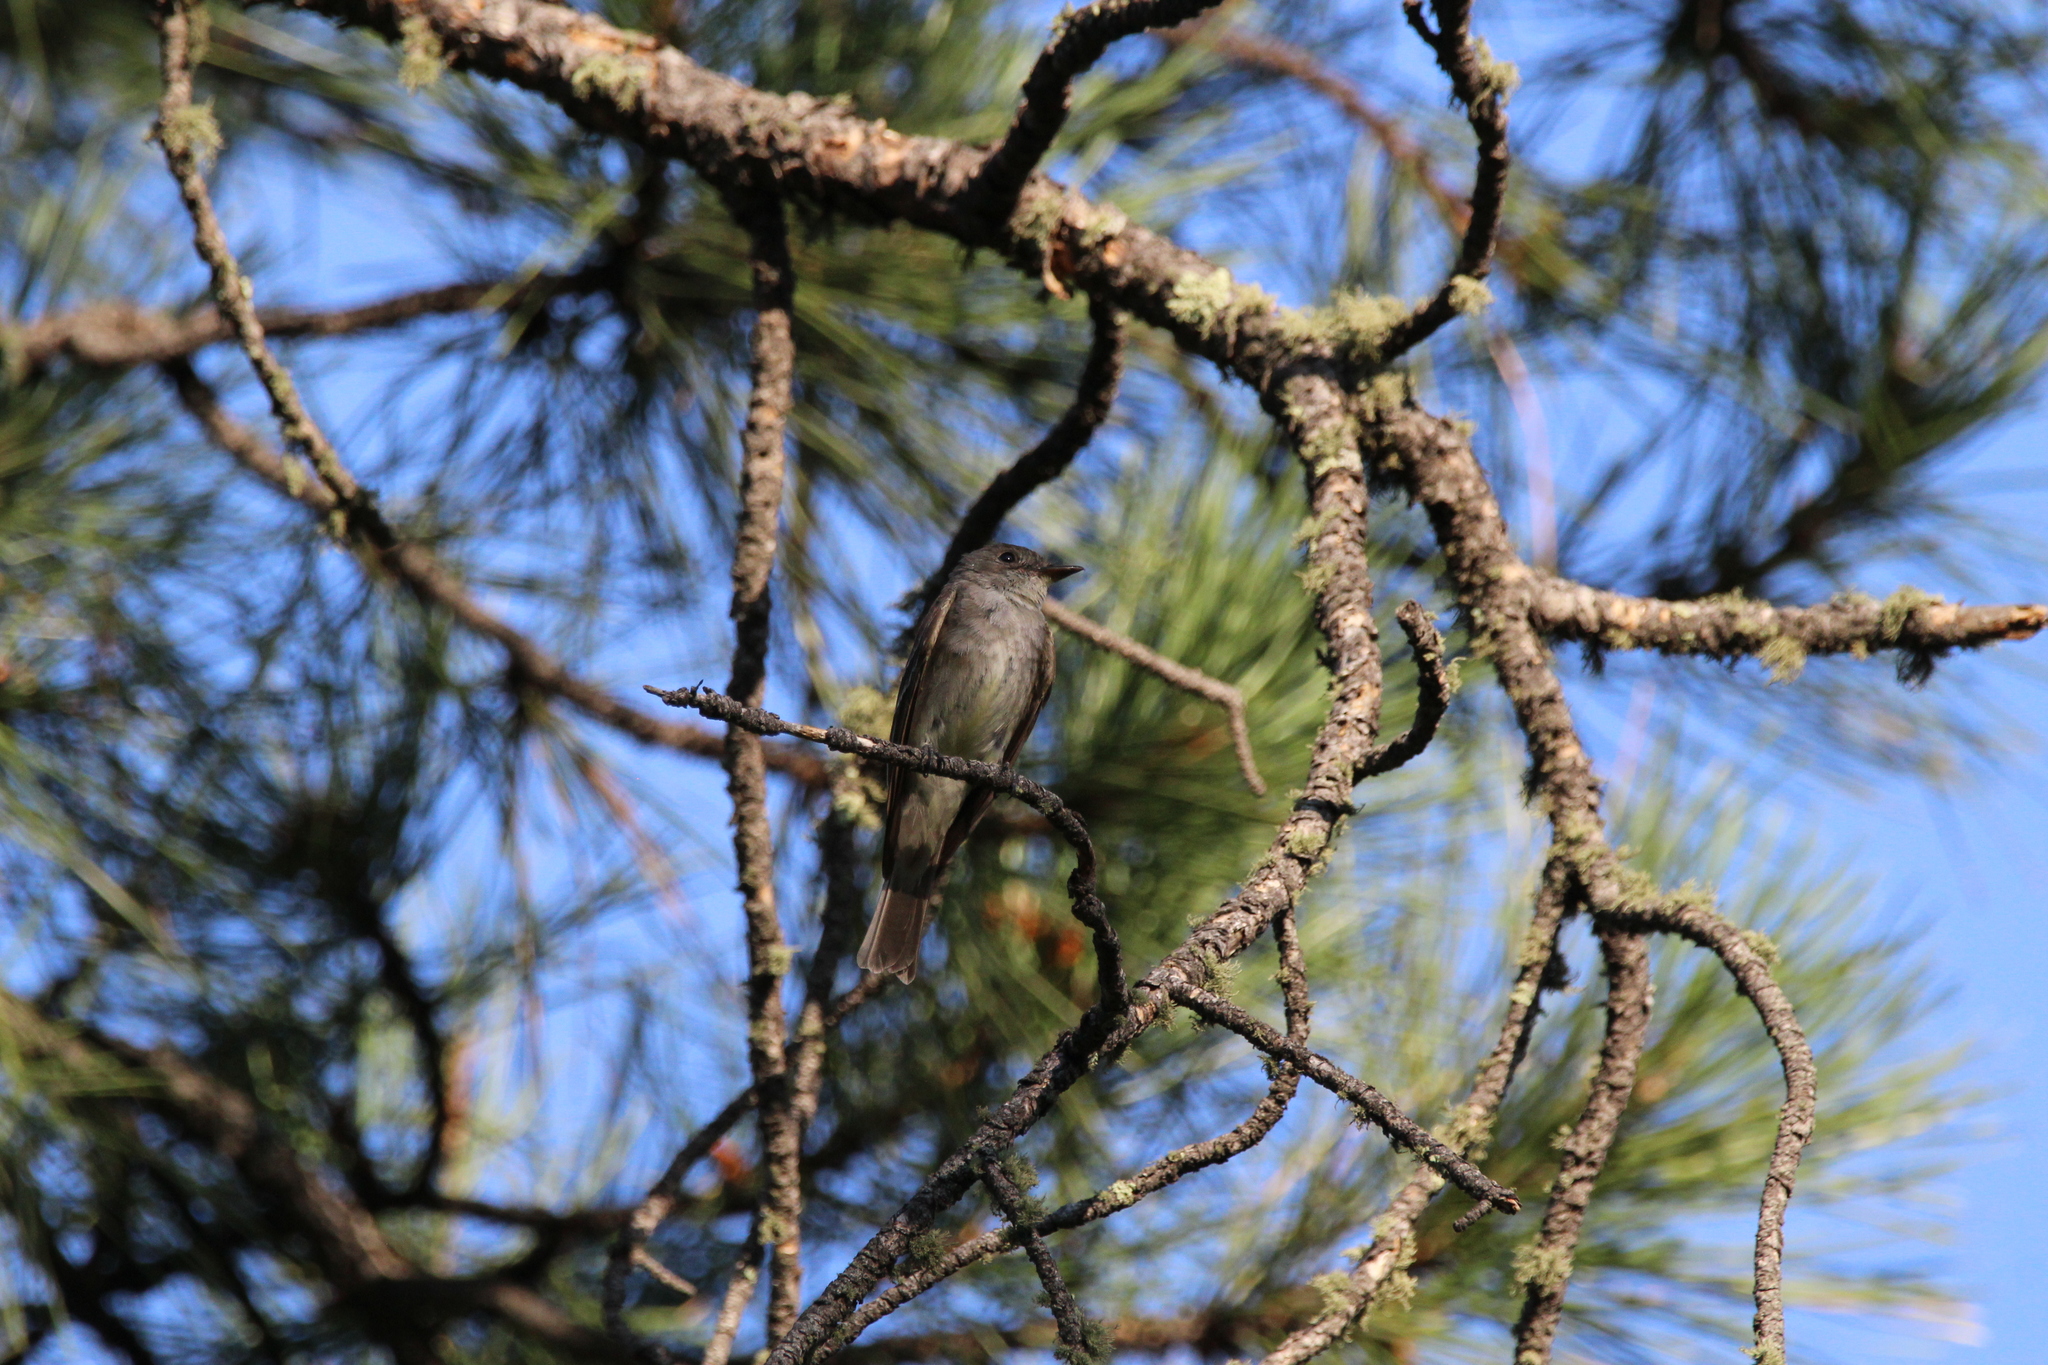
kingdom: Animalia
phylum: Chordata
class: Aves
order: Passeriformes
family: Tyrannidae
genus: Contopus
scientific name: Contopus sordidulus
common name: Western wood-pewee
